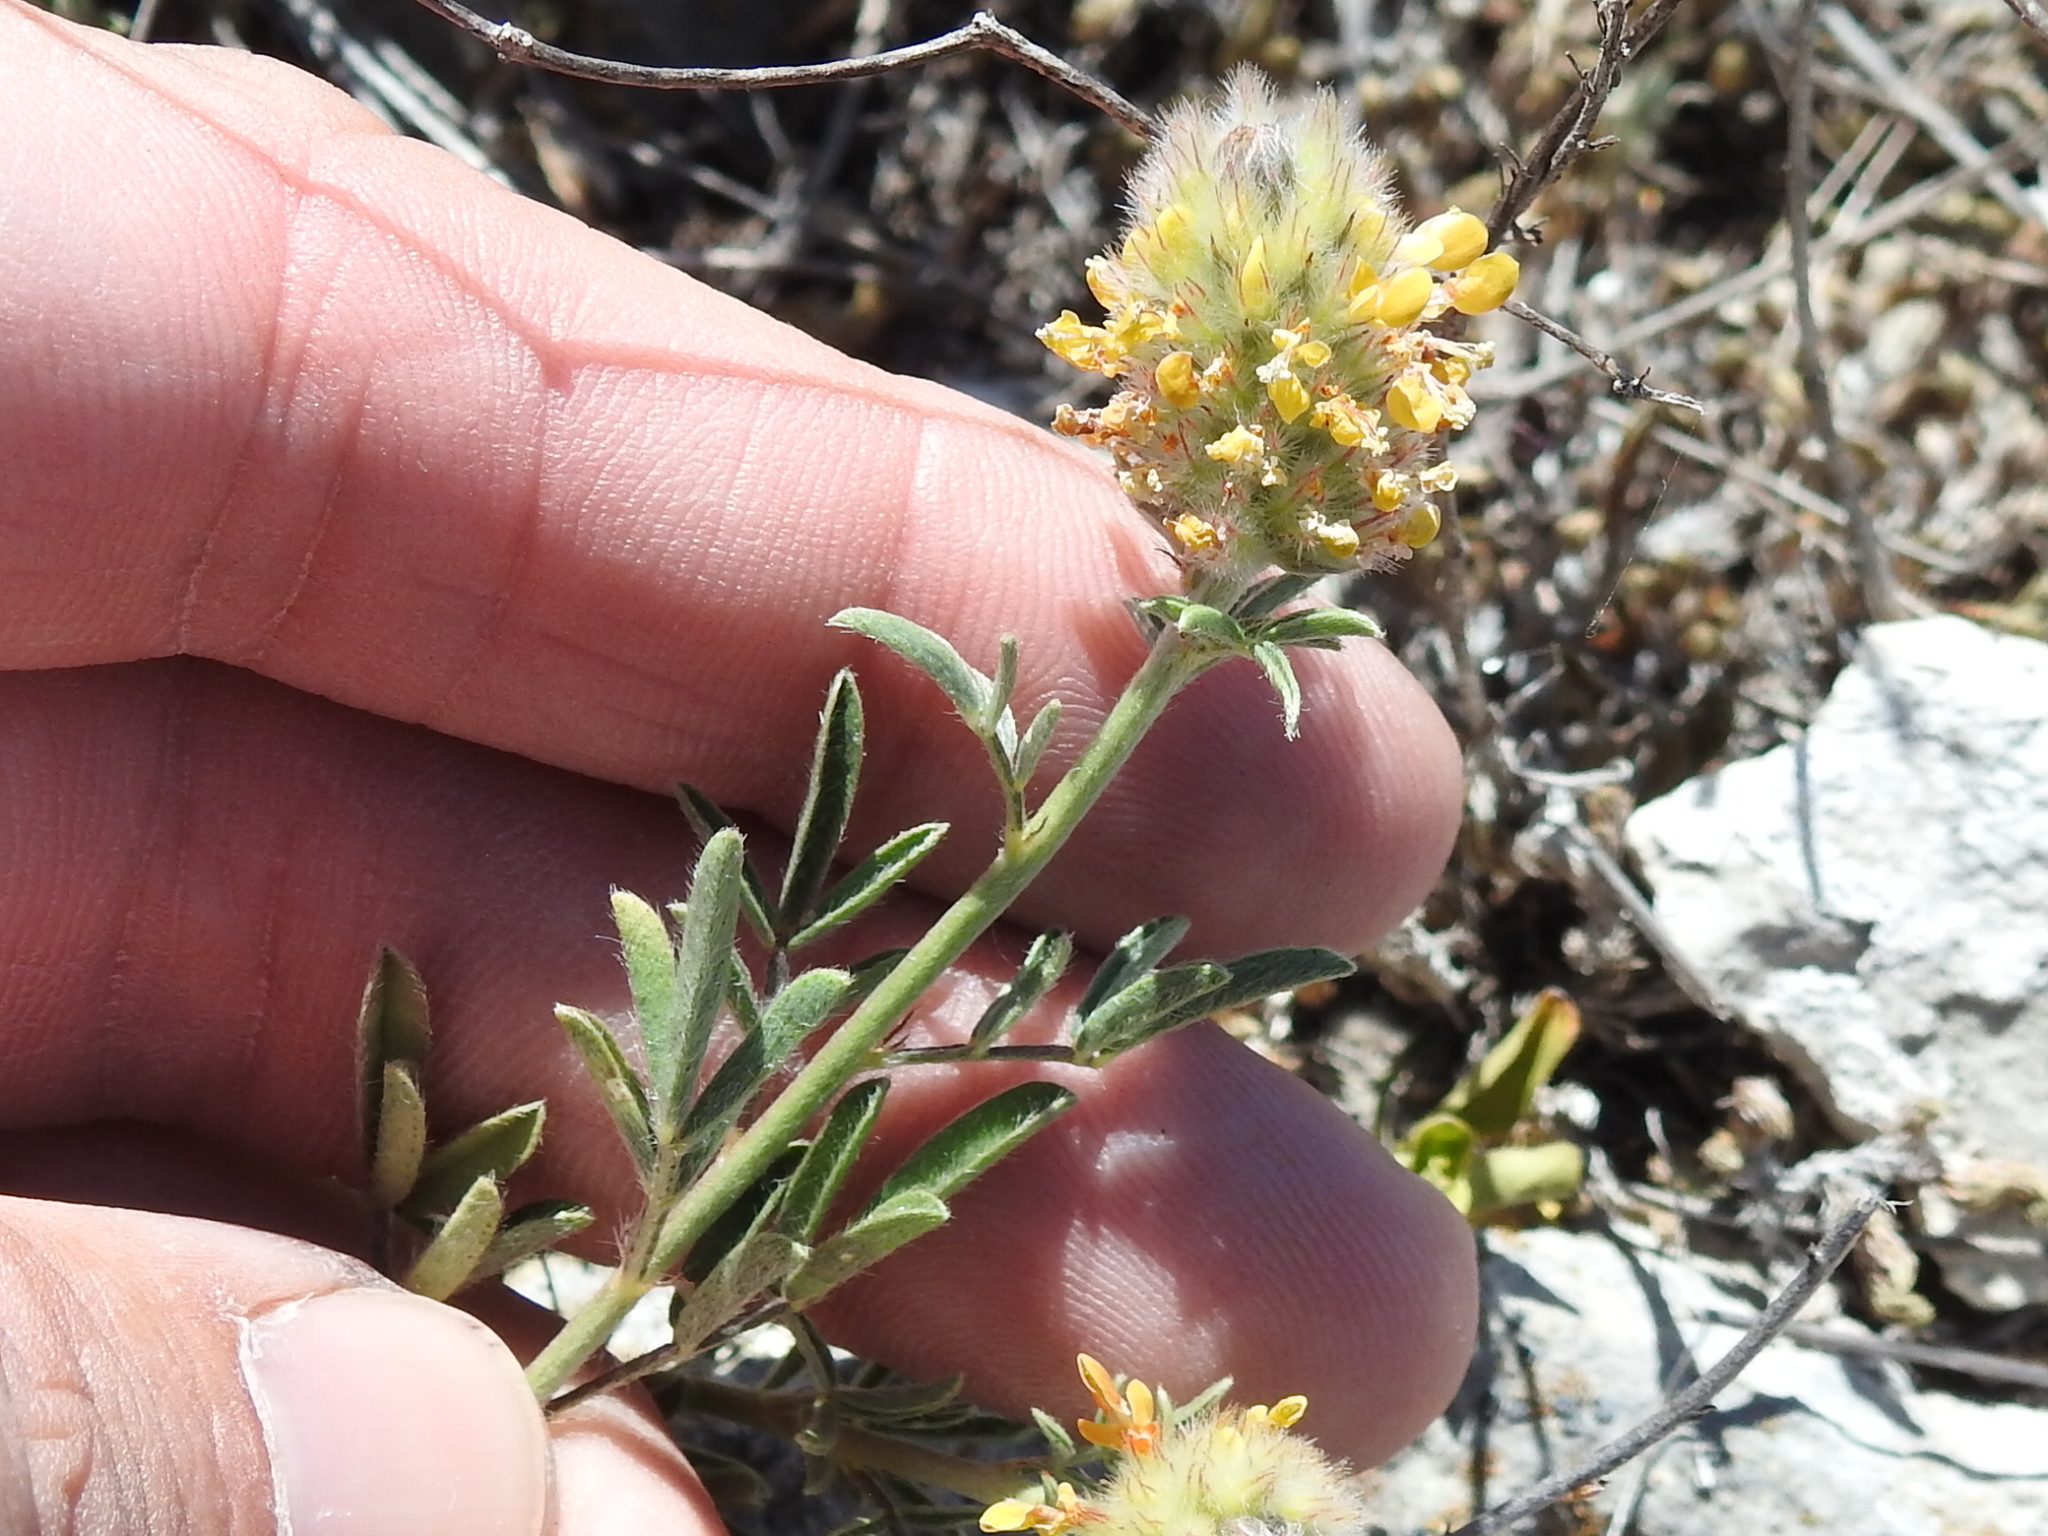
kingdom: Plantae
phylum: Tracheophyta
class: Magnoliopsida
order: Fabales
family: Fabaceae
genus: Dalea
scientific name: Dalea nana
